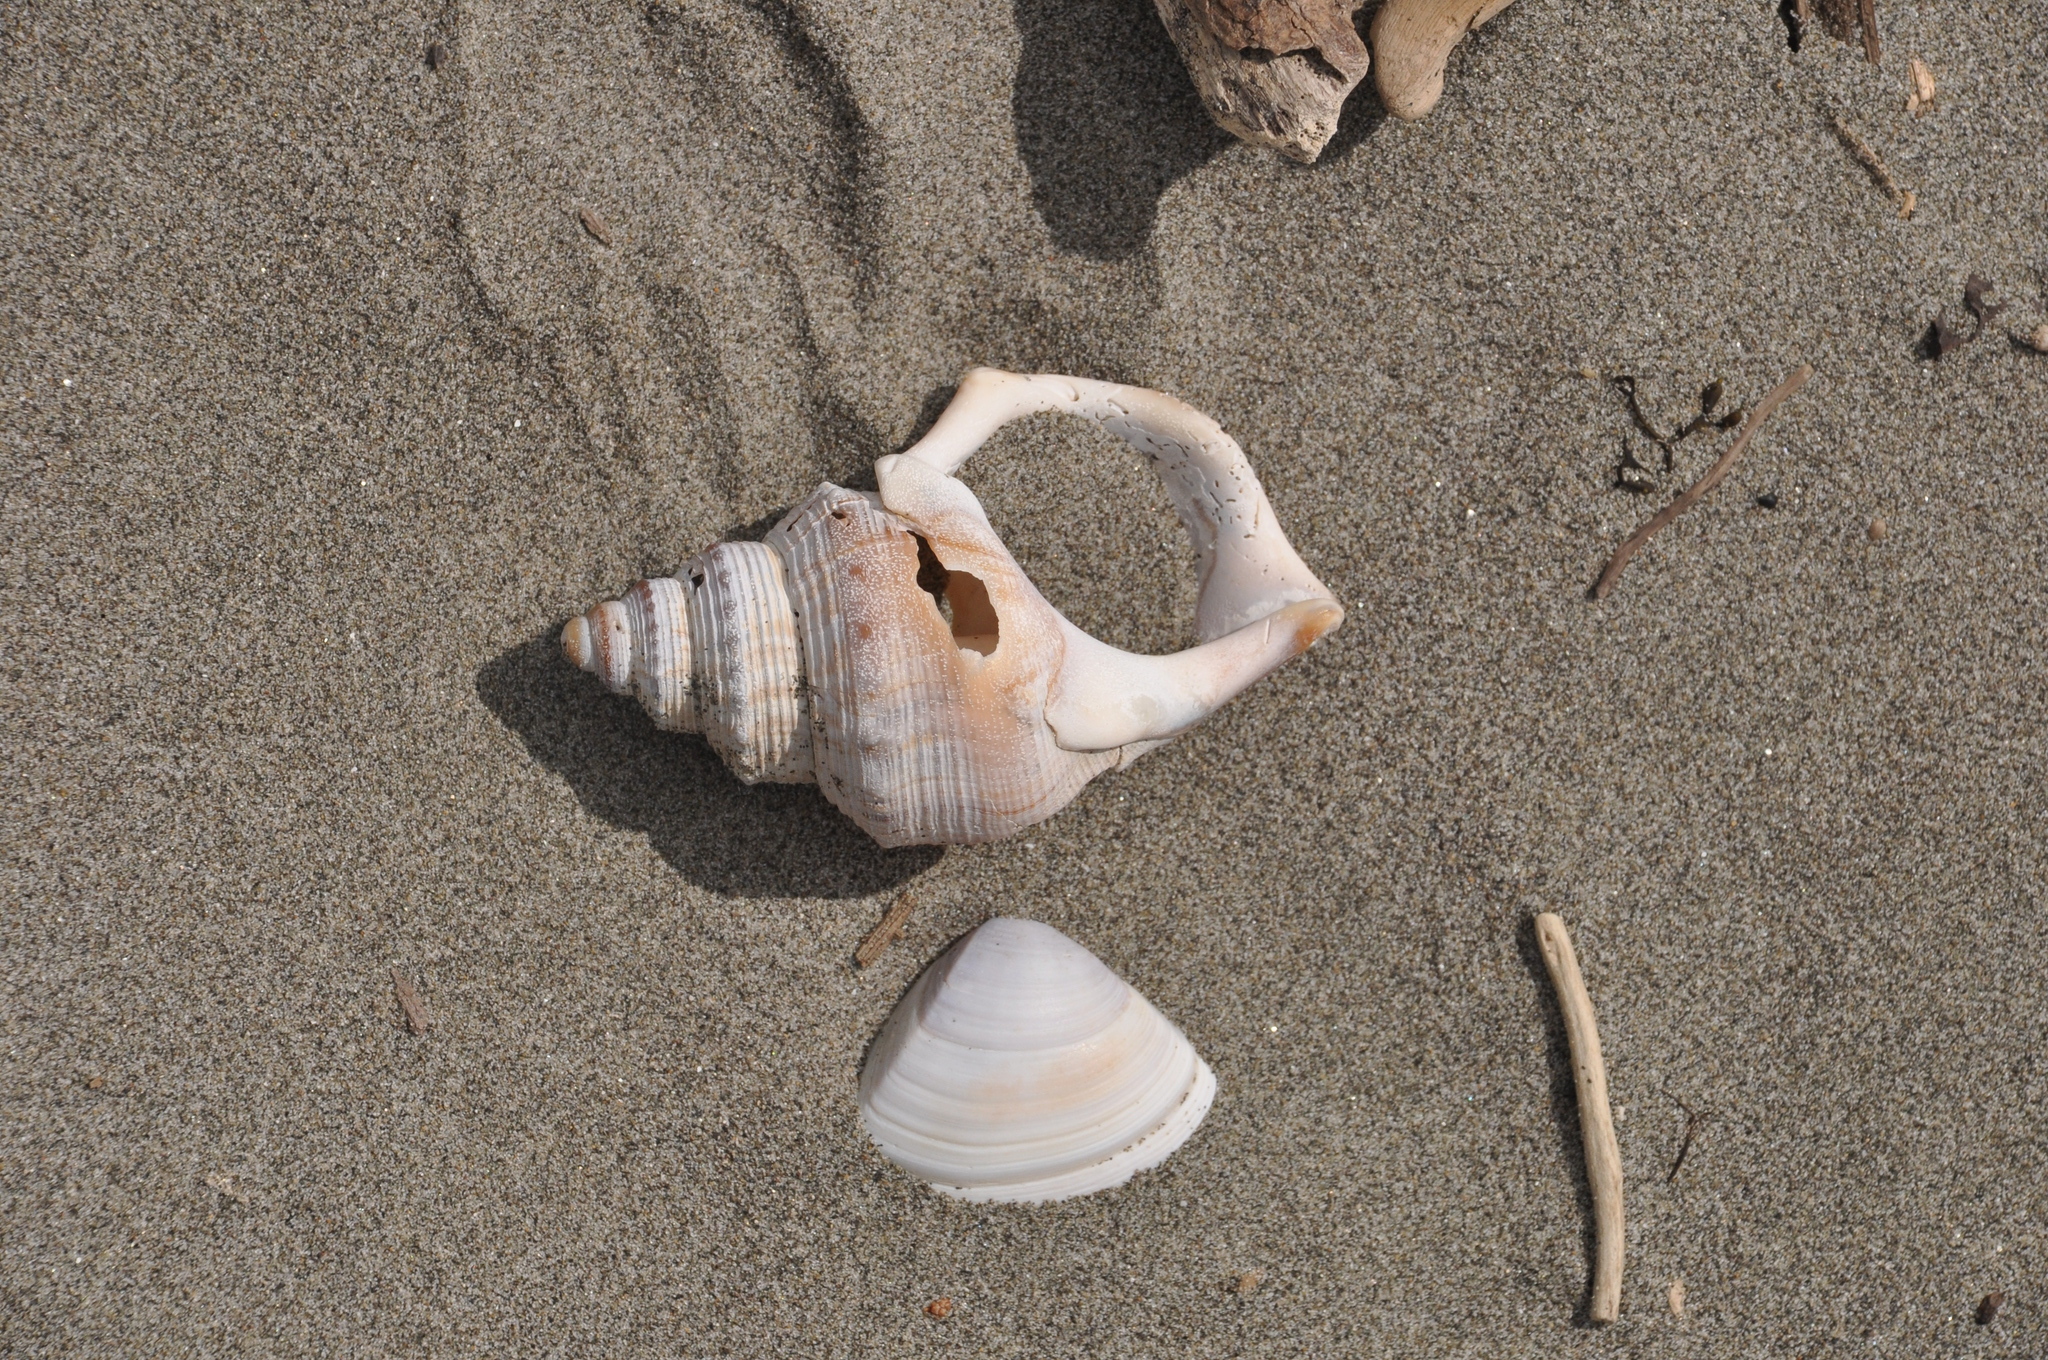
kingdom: Animalia
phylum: Mollusca
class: Gastropoda
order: Littorinimorpha
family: Struthiolariidae
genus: Struthiolaria
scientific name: Struthiolaria papulosa
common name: Large ostrich foot
